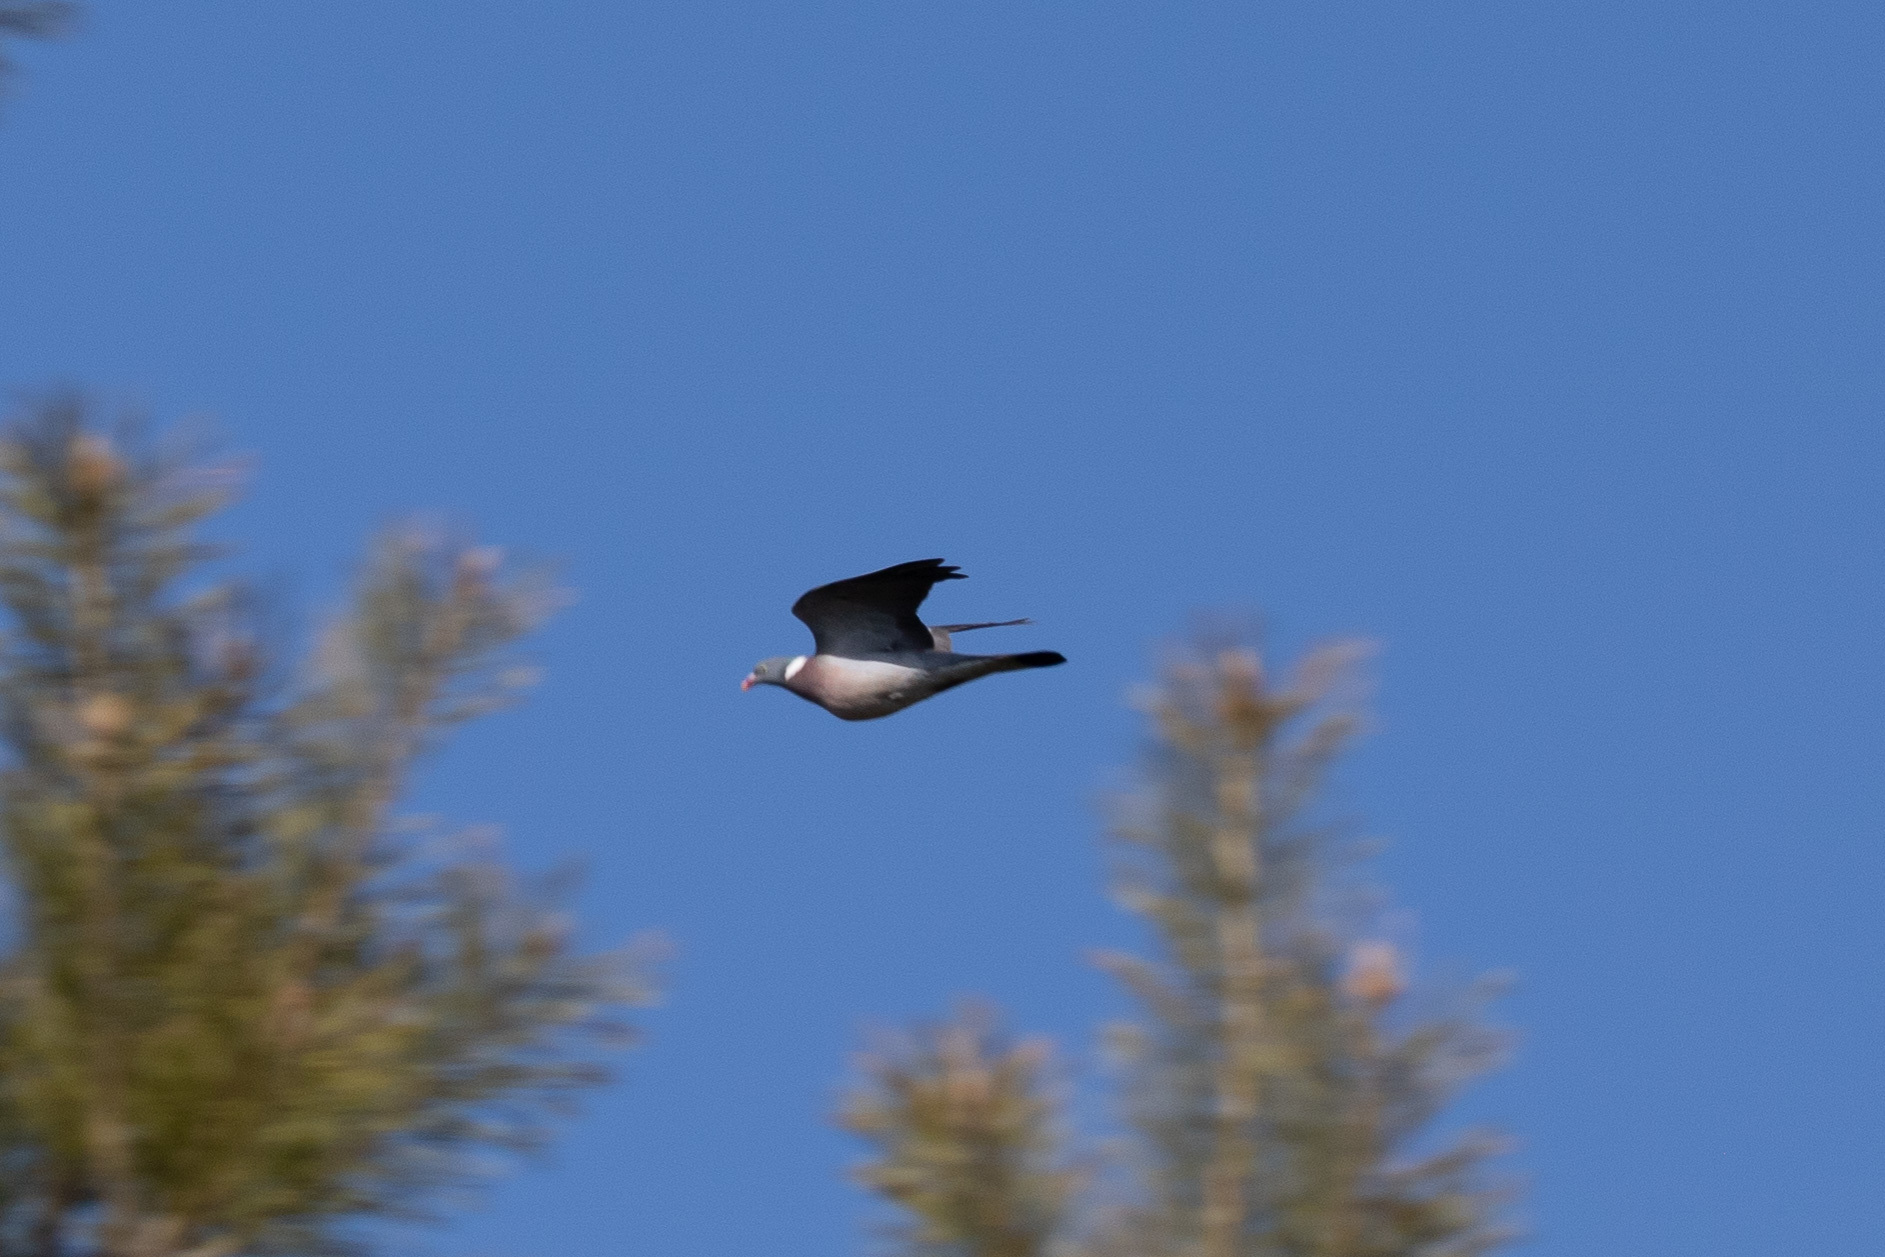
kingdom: Animalia
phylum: Chordata
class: Aves
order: Columbiformes
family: Columbidae
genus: Columba
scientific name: Columba palumbus
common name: Common wood pigeon
